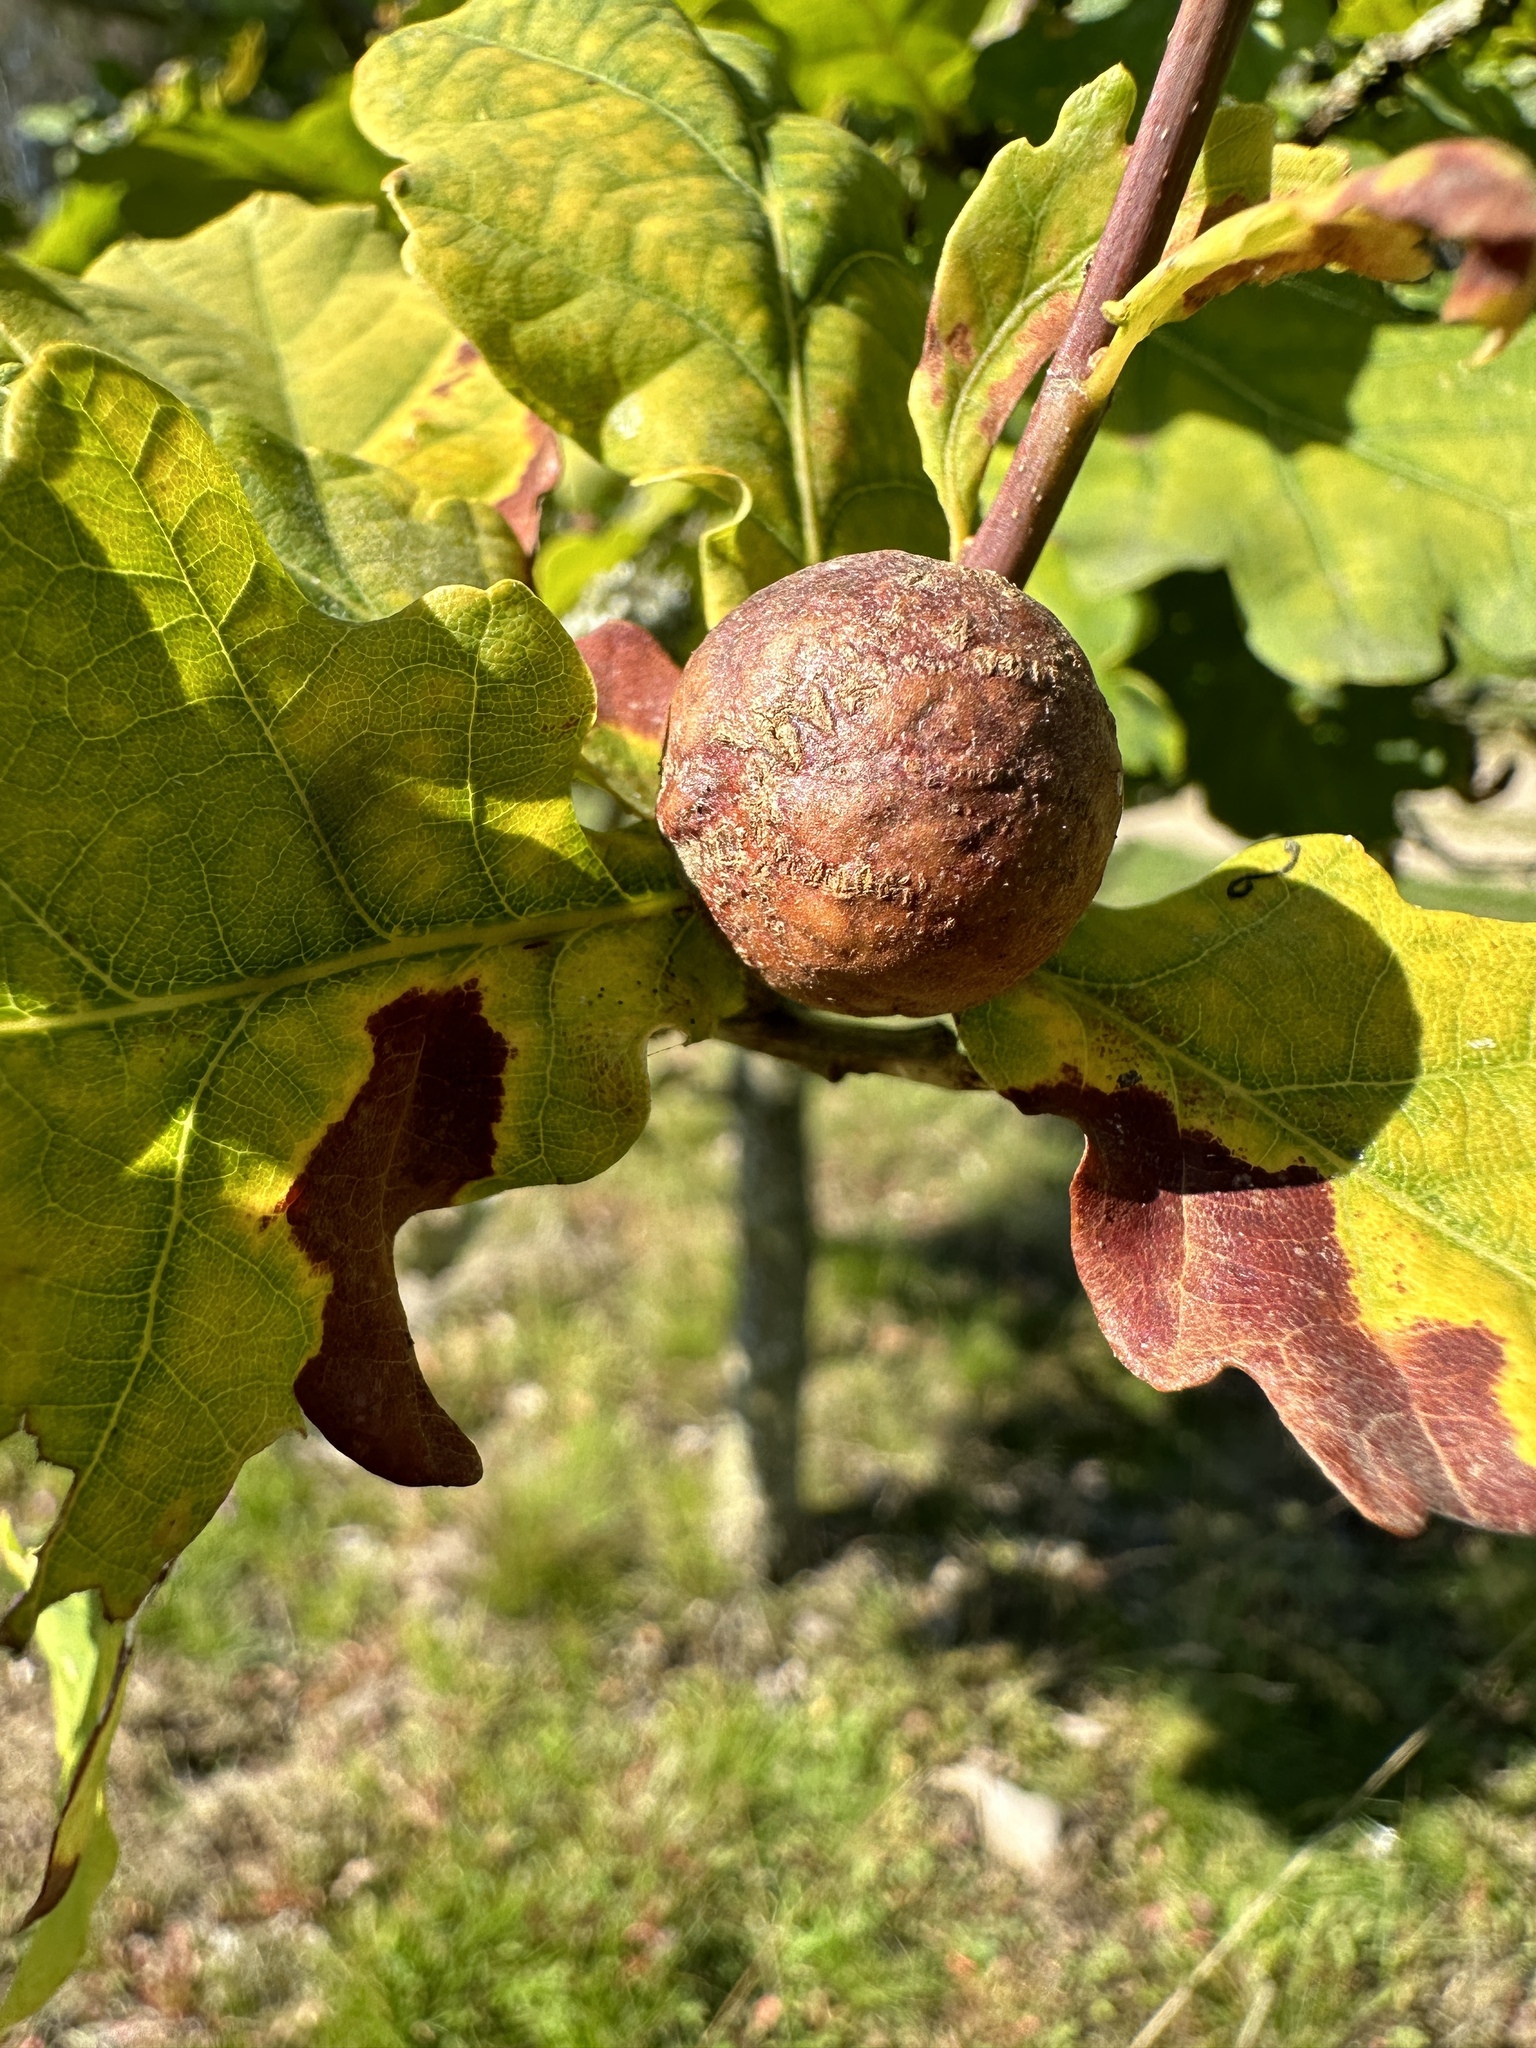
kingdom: Animalia
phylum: Arthropoda
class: Insecta
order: Hymenoptera
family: Cynipidae
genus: Andricus
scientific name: Andricus kollari
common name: Marble gall
